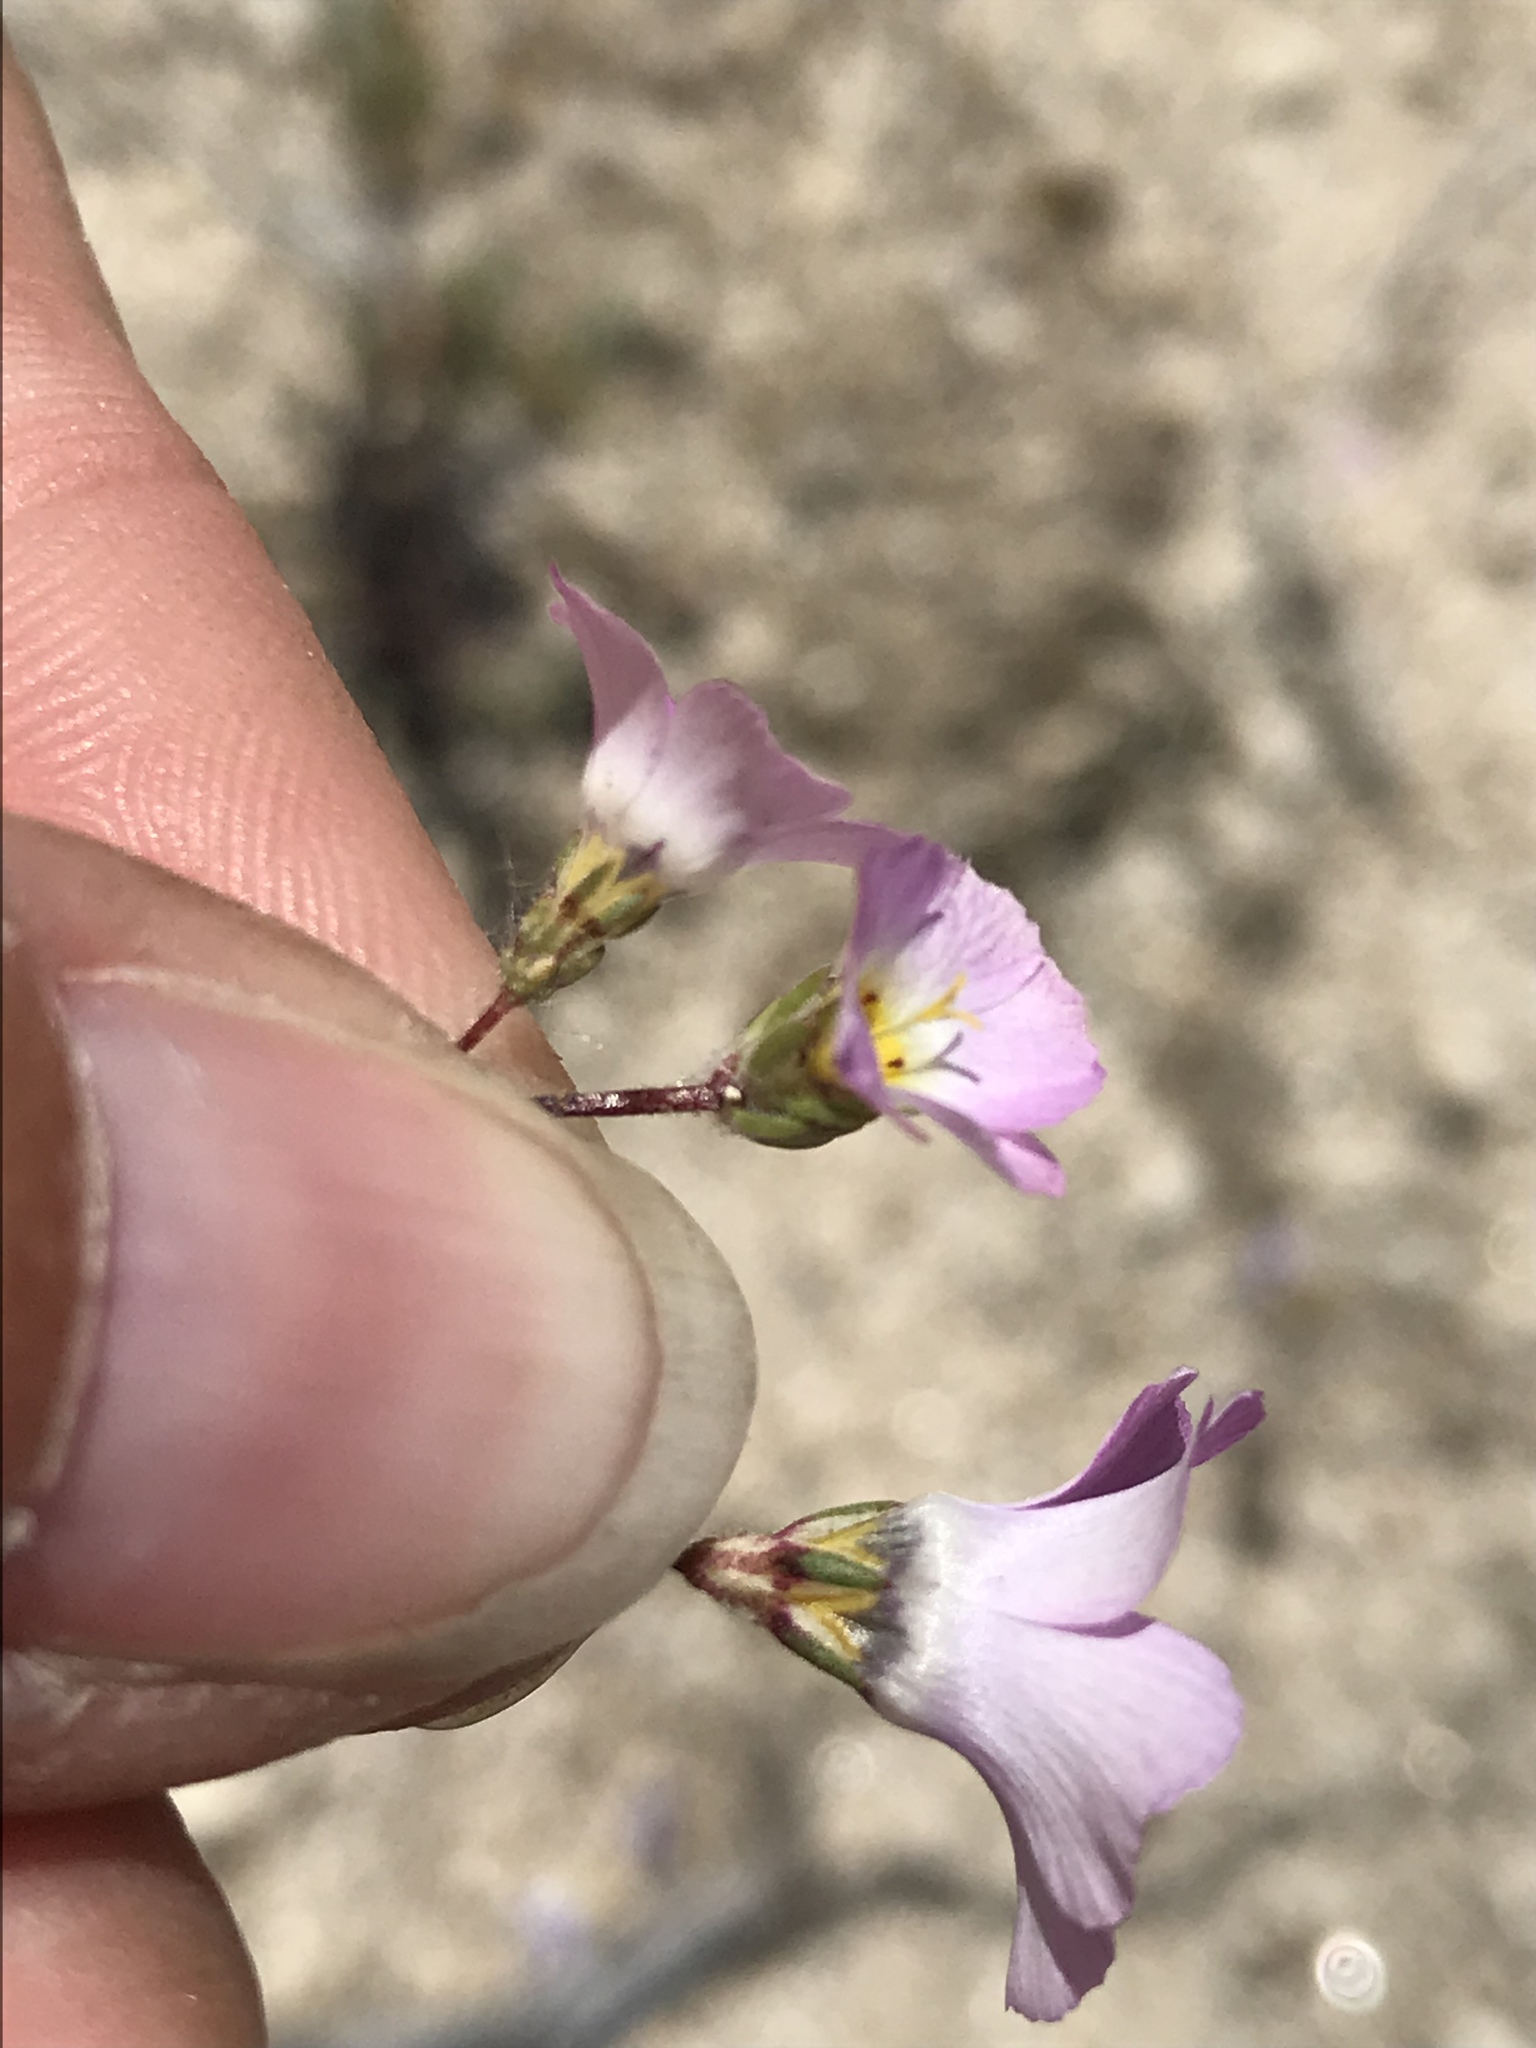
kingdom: Plantae
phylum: Tracheophyta
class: Magnoliopsida
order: Ericales
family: Polemoniaceae
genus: Linanthus
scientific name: Linanthus bellus
